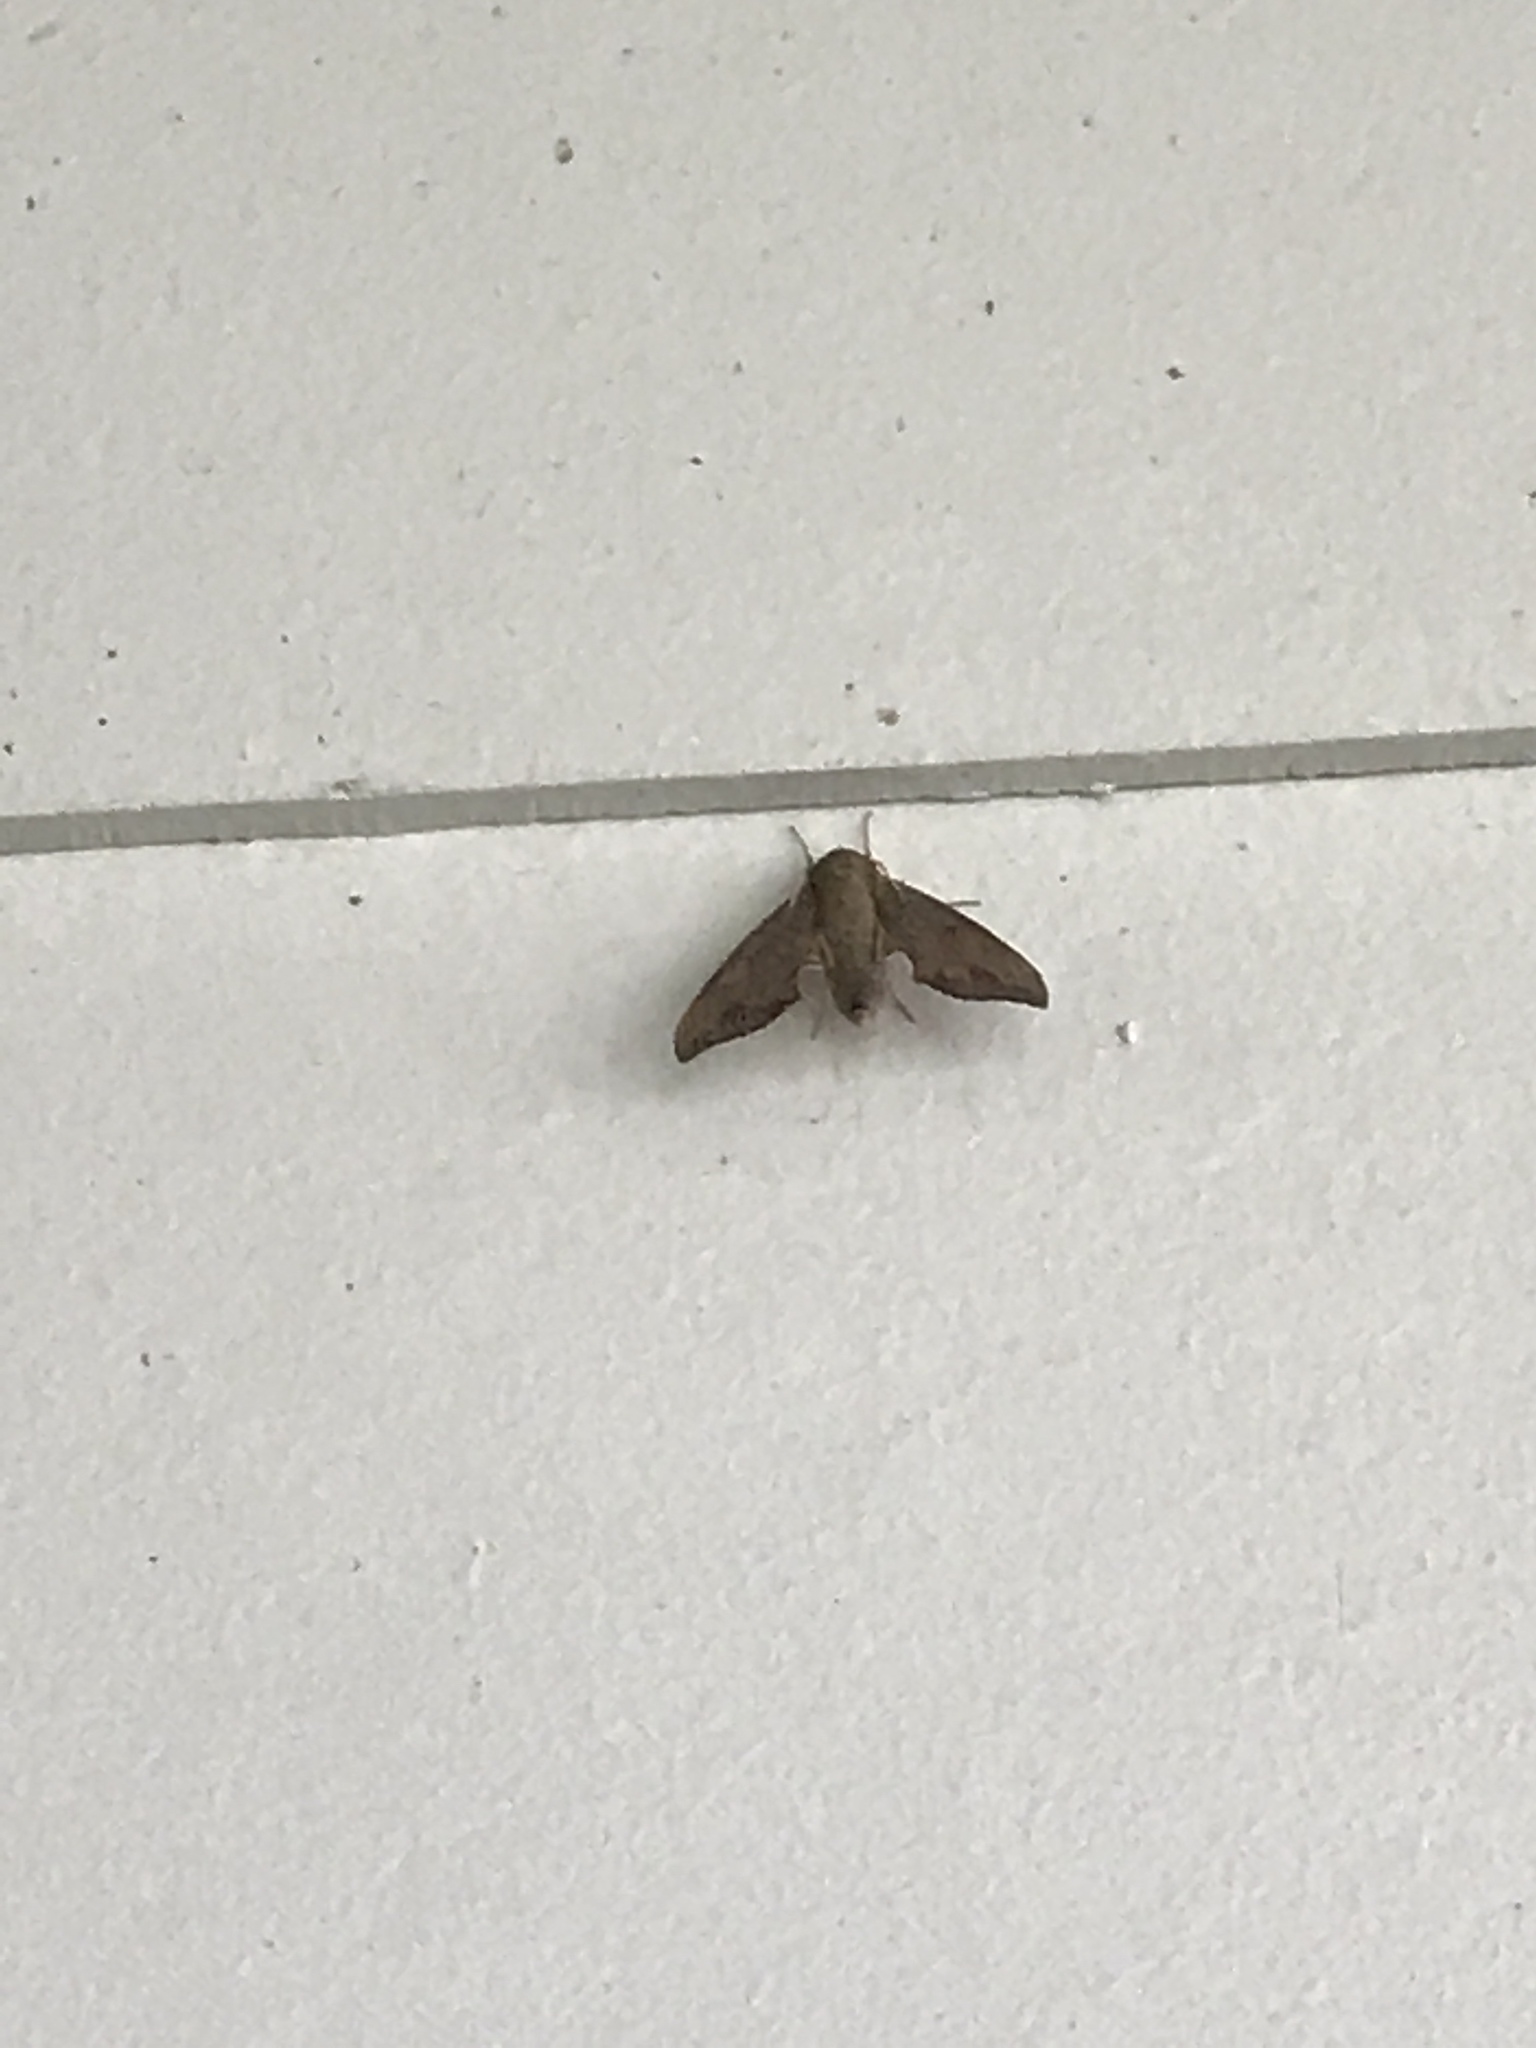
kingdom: Animalia
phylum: Arthropoda
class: Insecta
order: Lepidoptera
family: Sphingidae
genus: Darapsa
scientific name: Darapsa myron
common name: Hog sphinx
